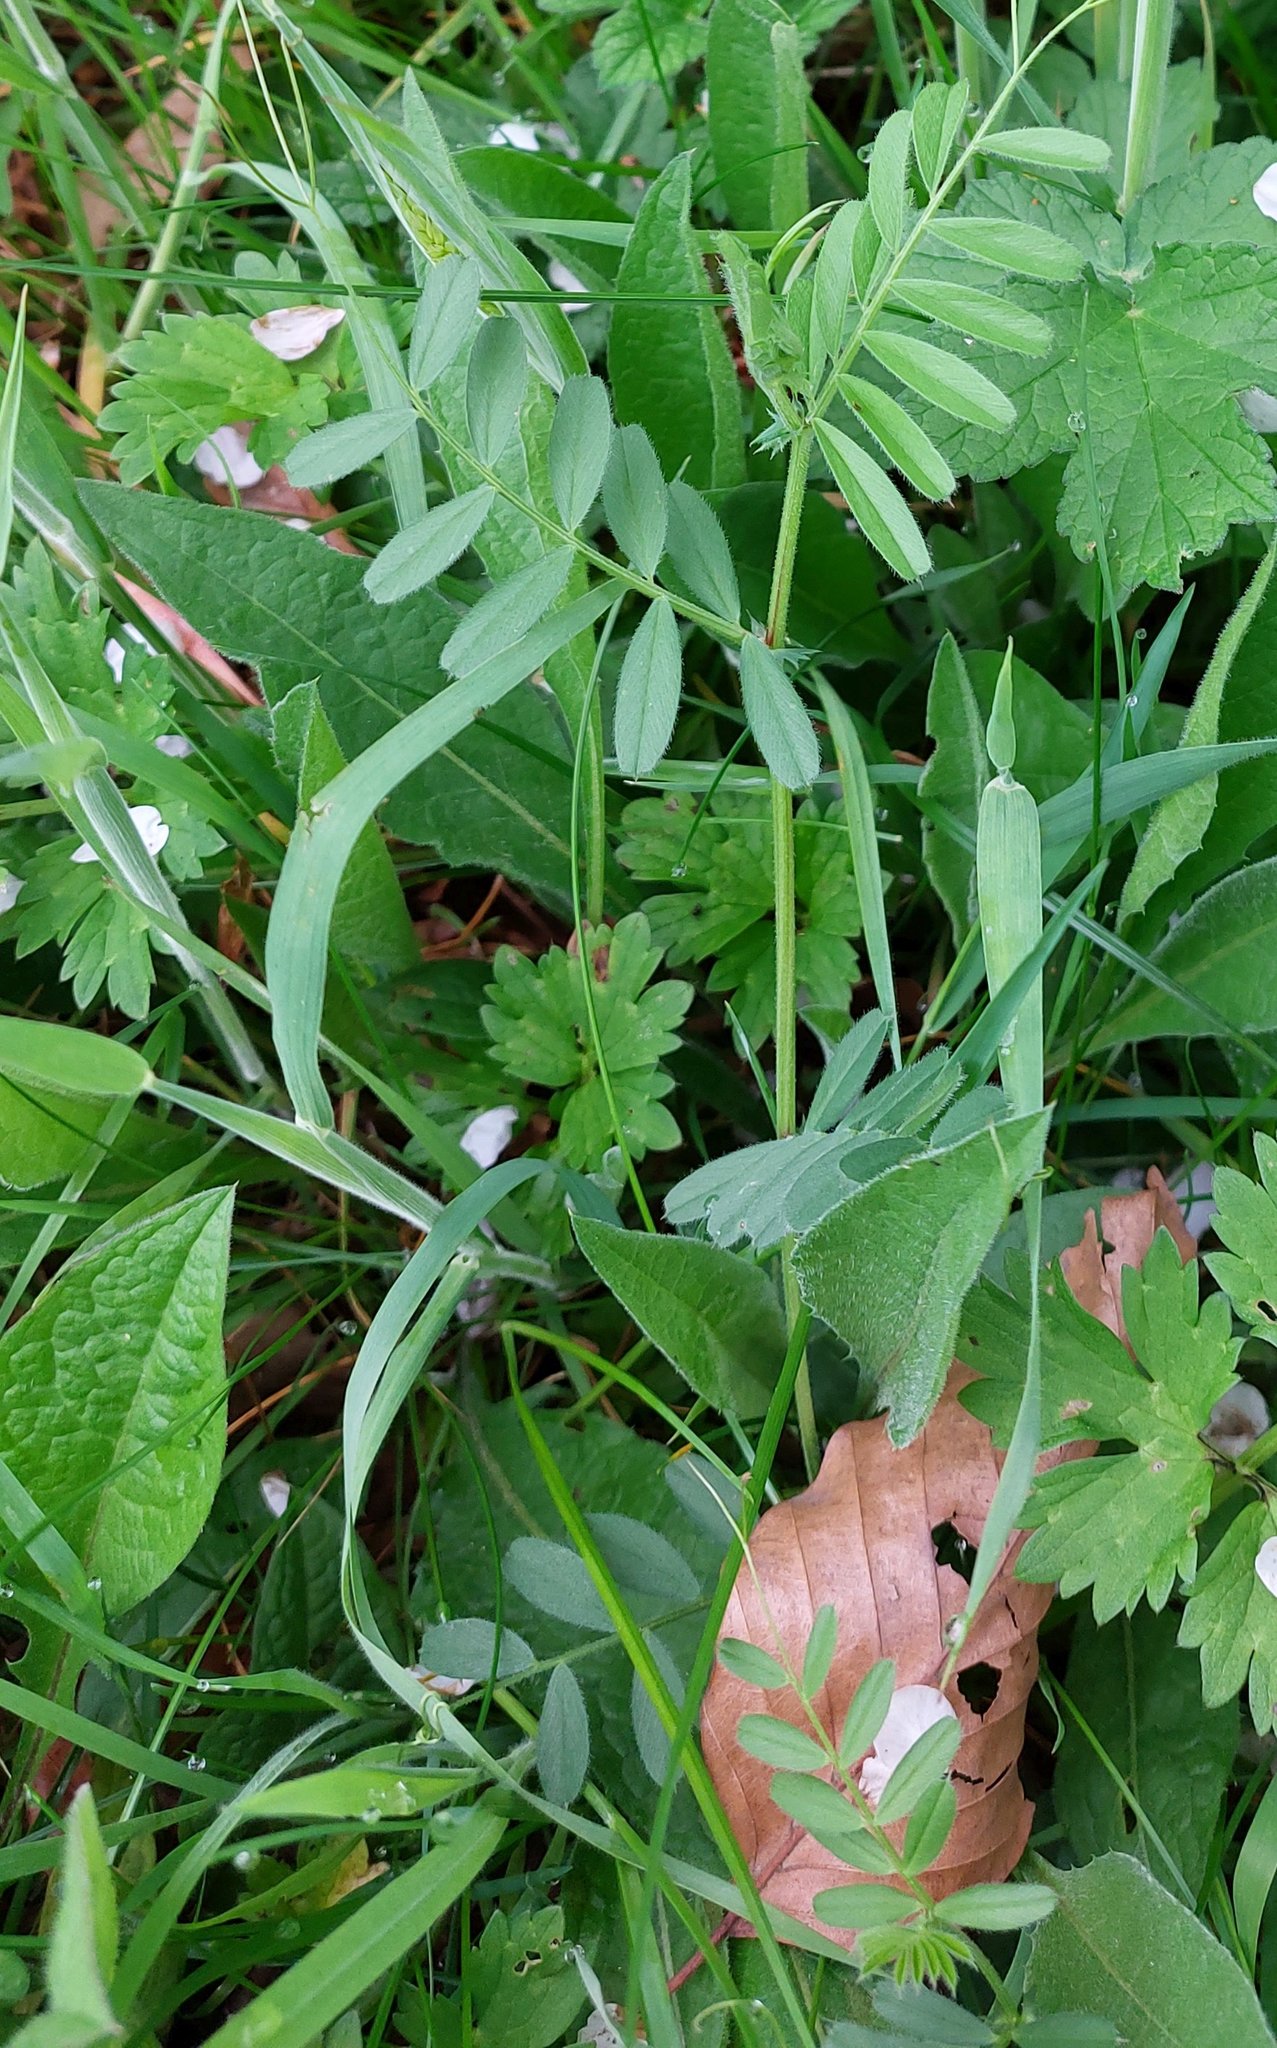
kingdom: Plantae
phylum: Tracheophyta
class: Magnoliopsida
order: Fabales
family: Fabaceae
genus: Vicia
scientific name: Vicia sativa
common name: Garden vetch
